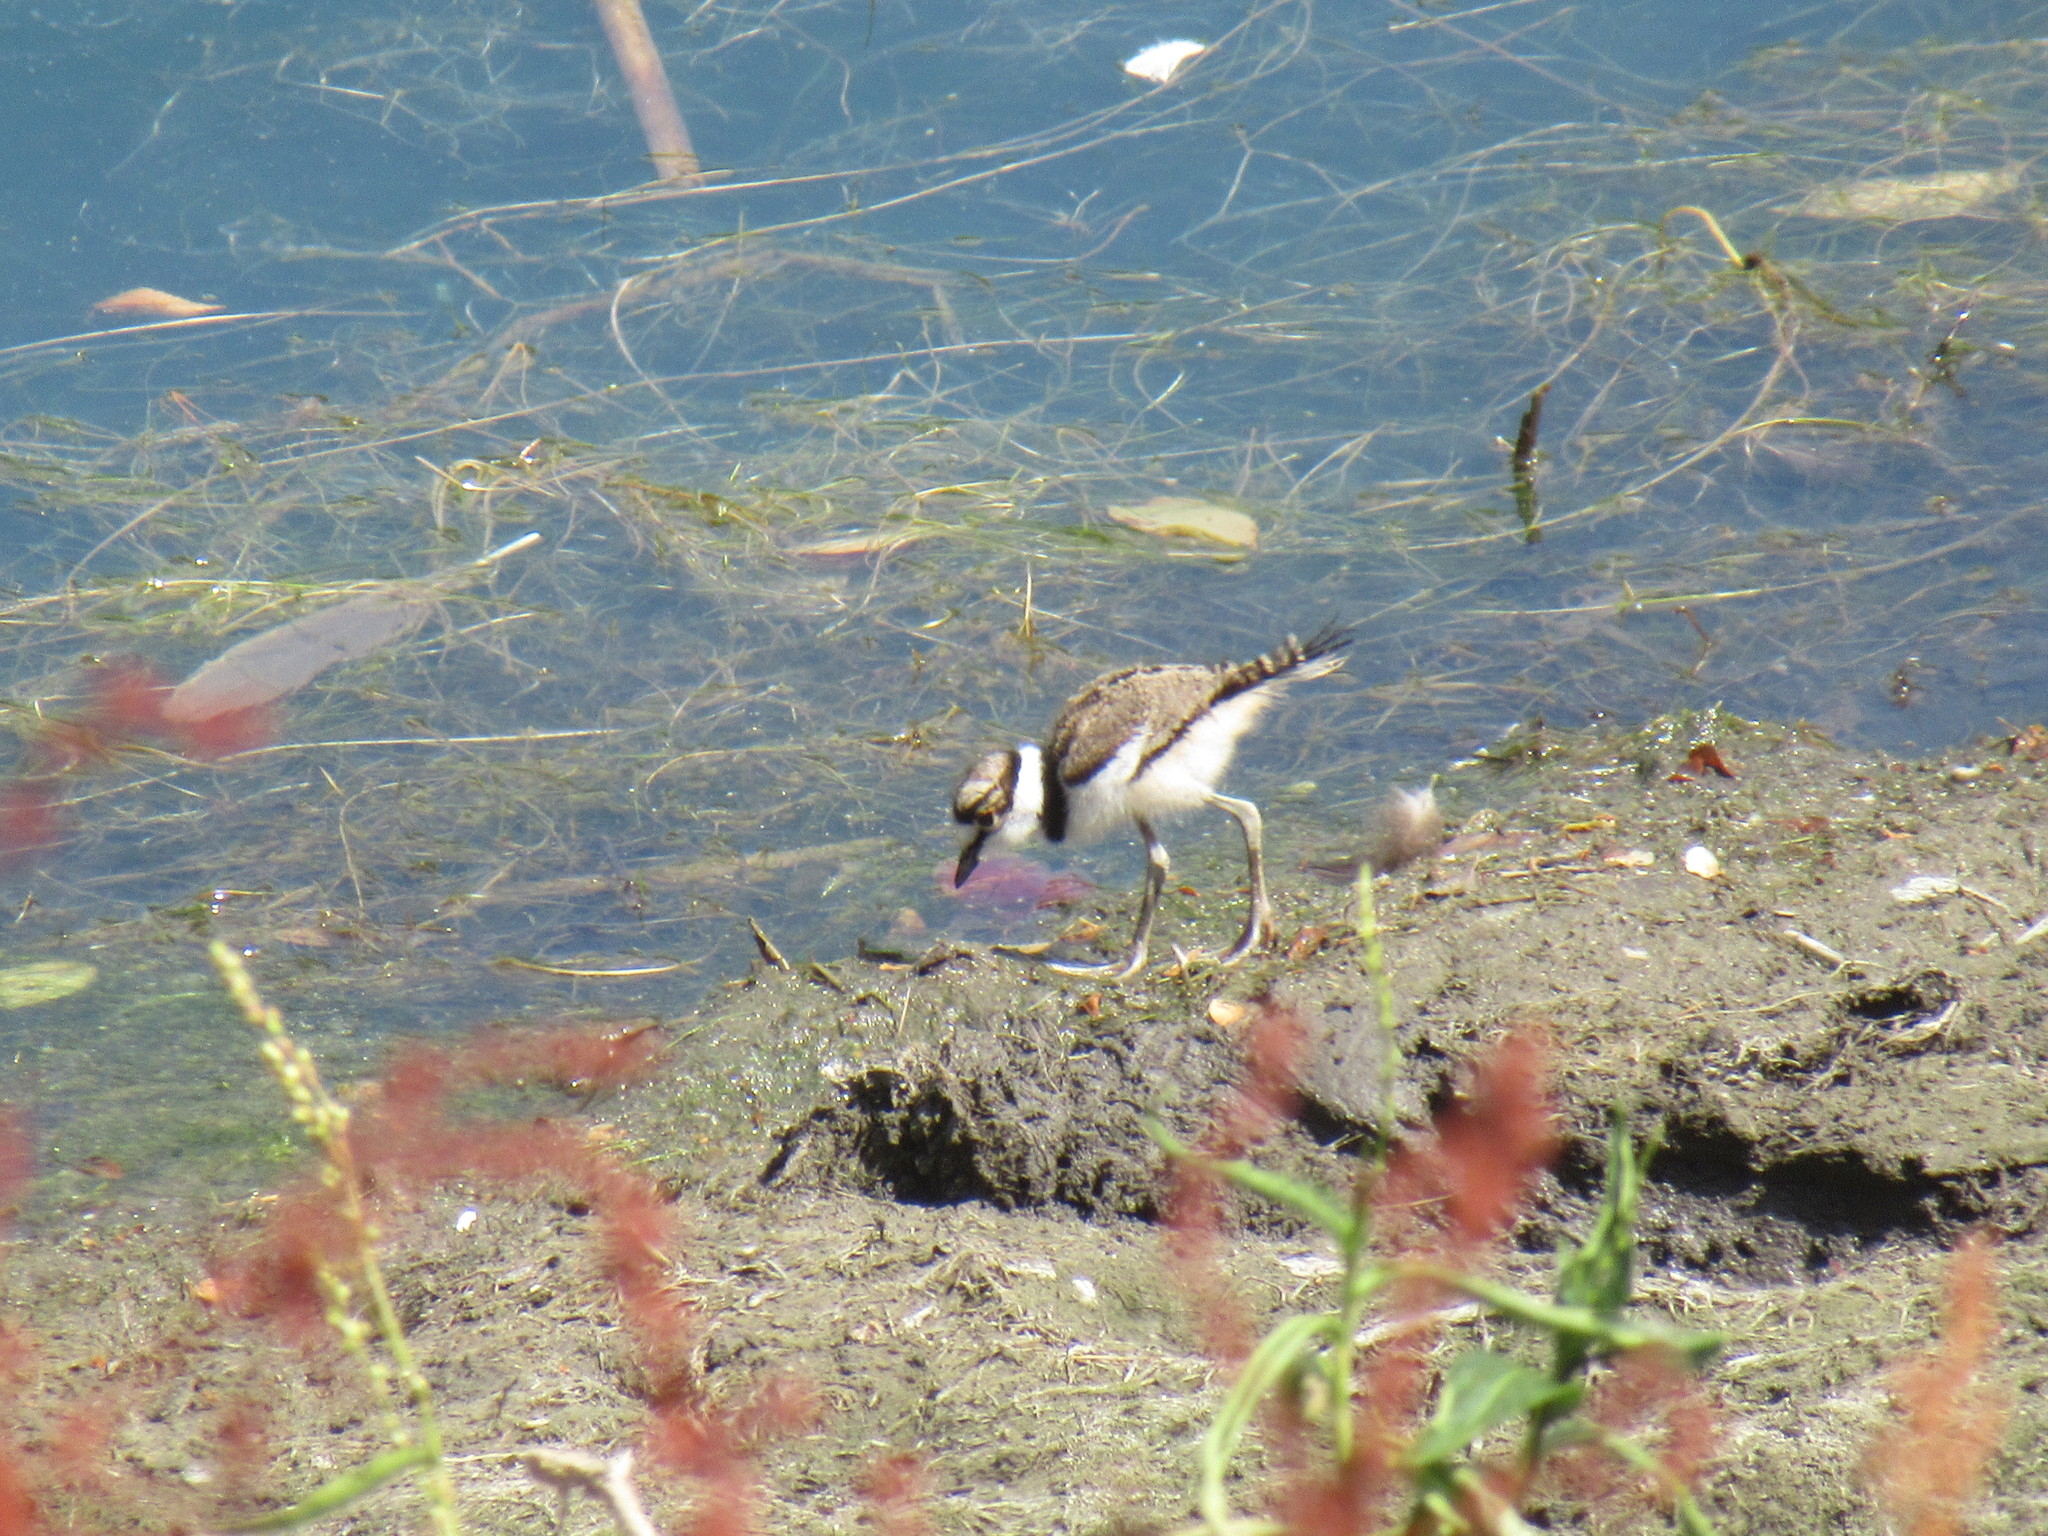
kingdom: Animalia
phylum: Chordata
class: Aves
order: Charadriiformes
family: Charadriidae
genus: Charadrius
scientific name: Charadrius vociferus
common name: Killdeer
